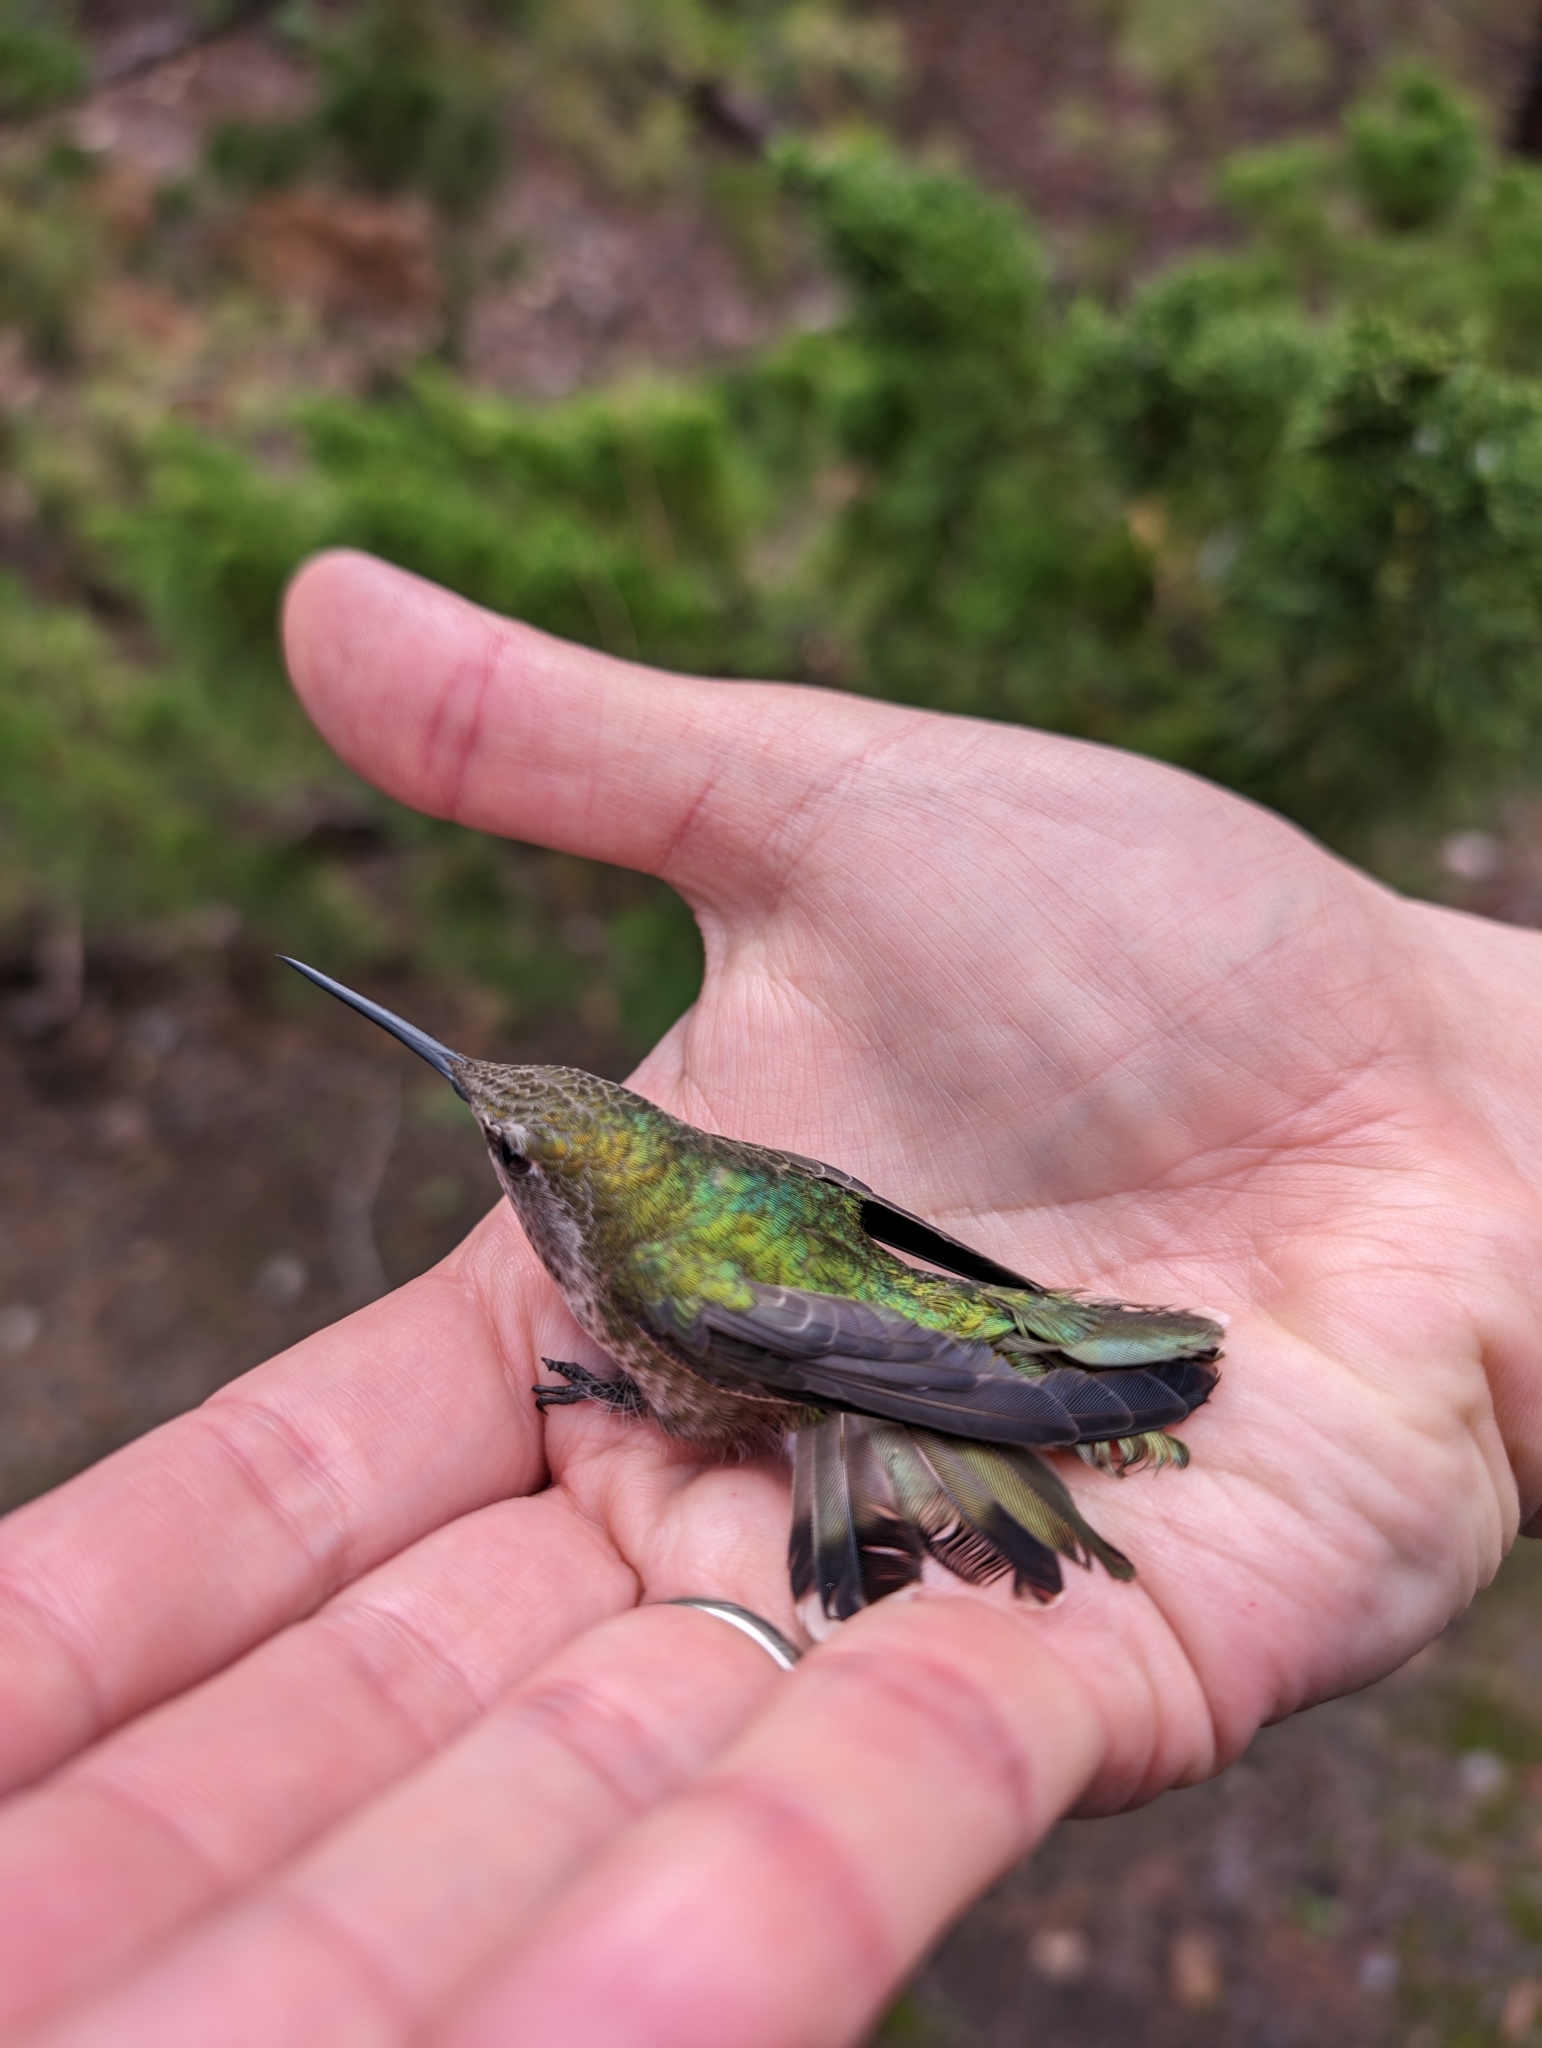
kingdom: Animalia
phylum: Chordata
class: Aves
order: Apodiformes
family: Trochilidae
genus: Calypte
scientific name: Calypte anna
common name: Anna's hummingbird
